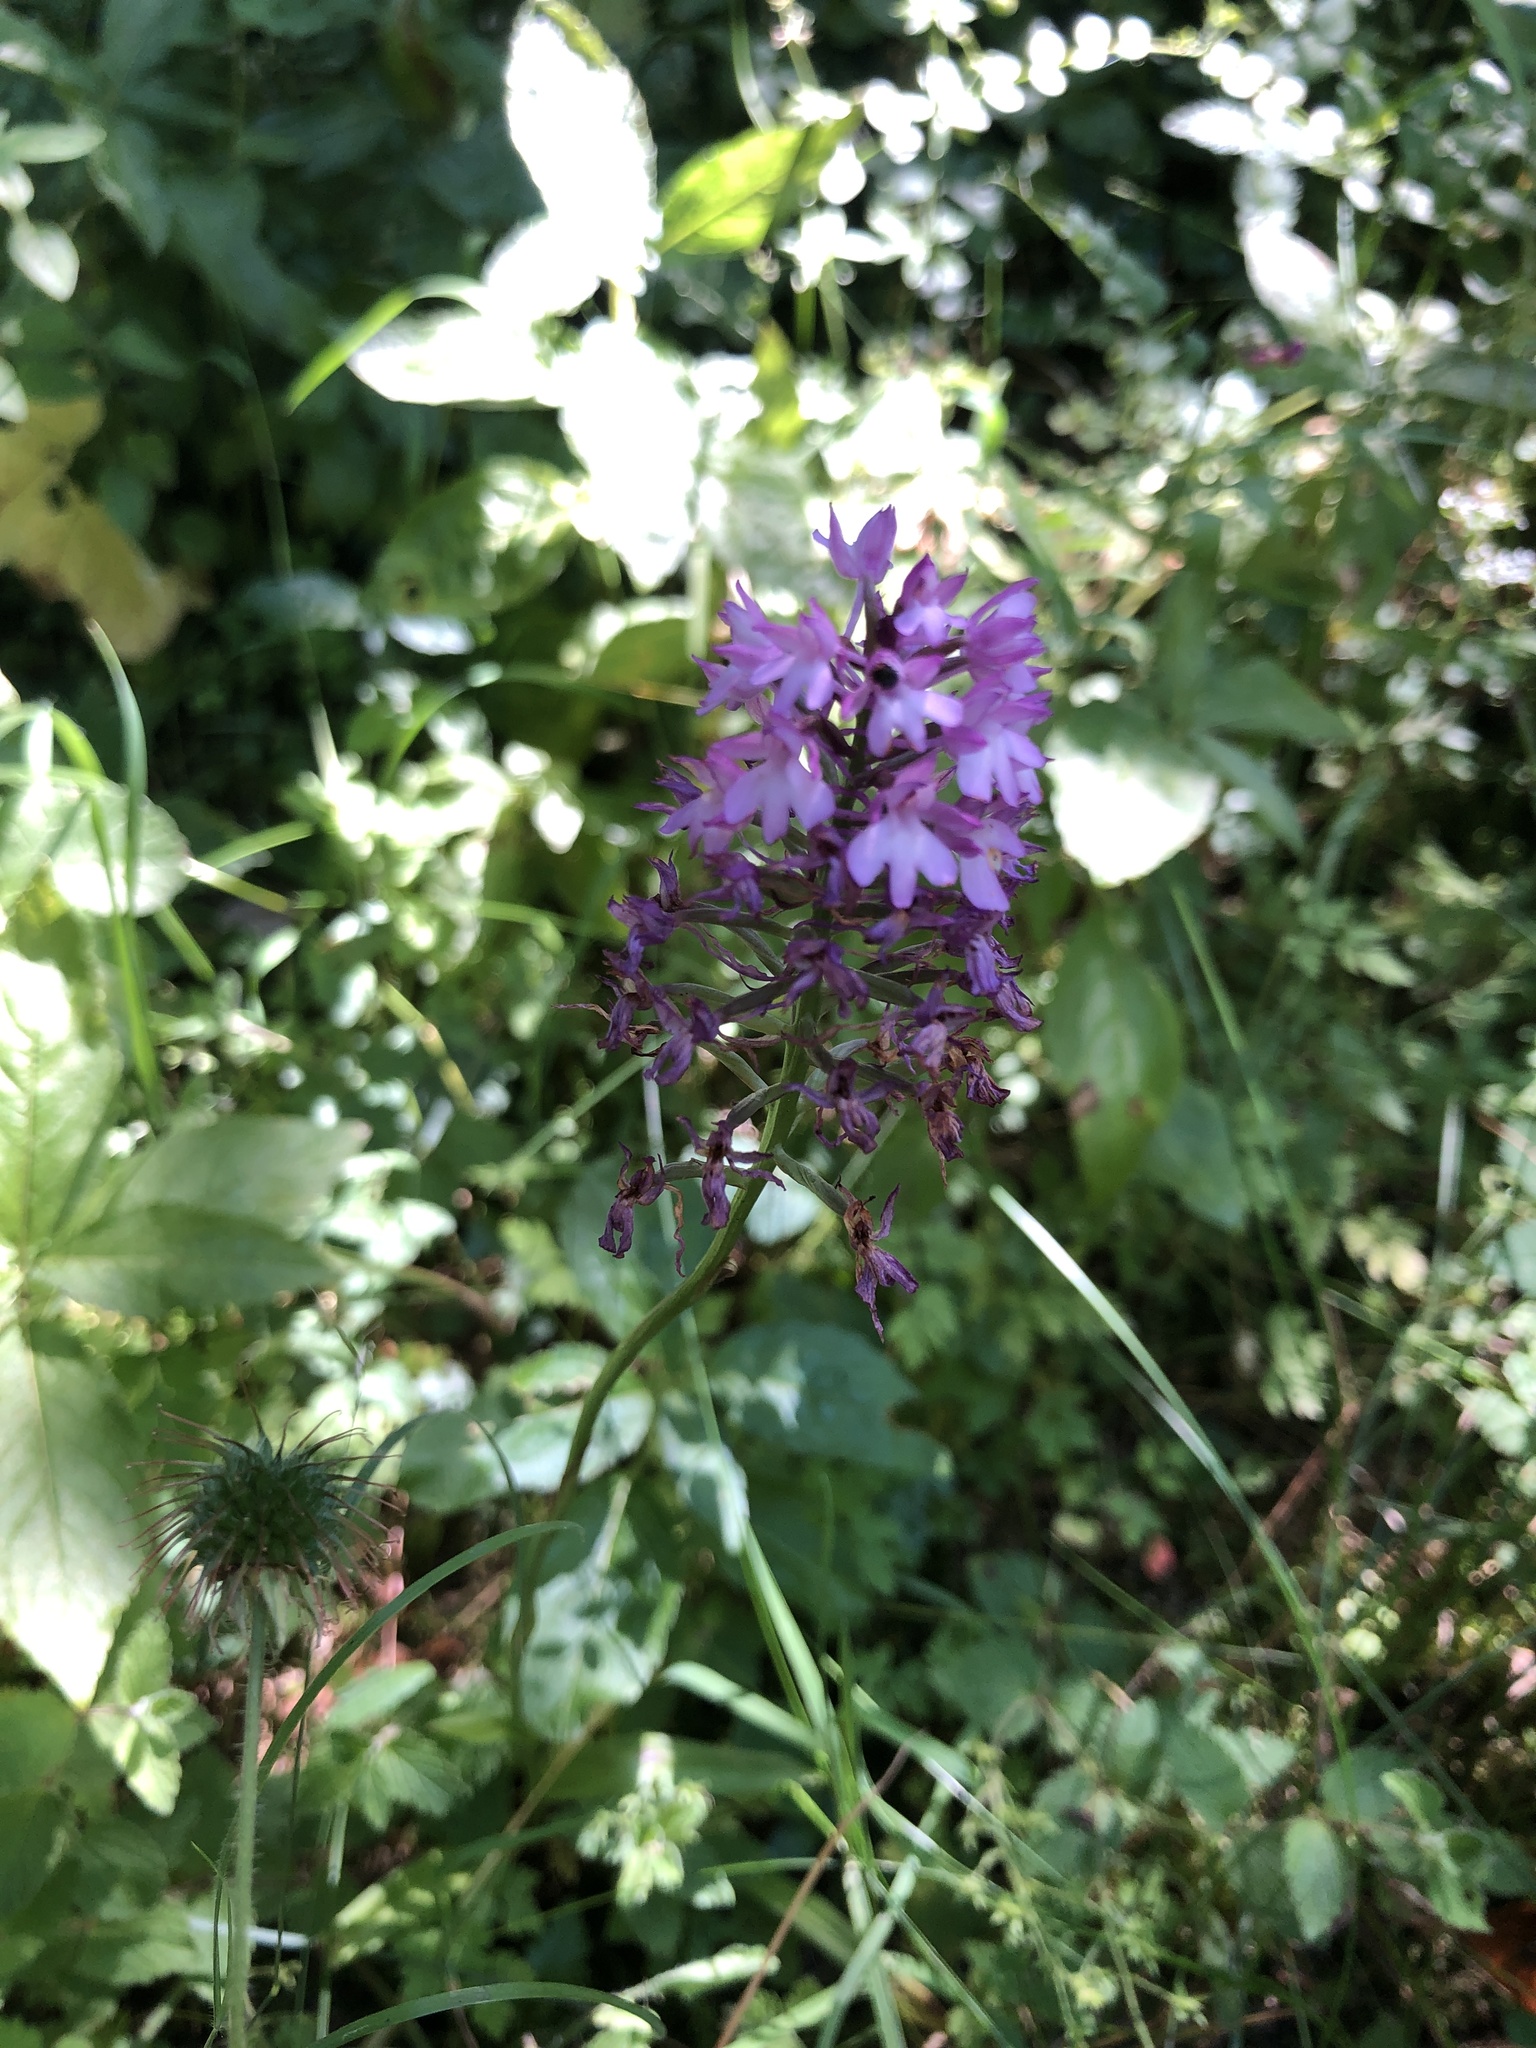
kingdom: Plantae
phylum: Tracheophyta
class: Liliopsida
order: Asparagales
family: Orchidaceae
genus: Anacamptis
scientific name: Anacamptis pyramidalis
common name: Pyramidal orchid
